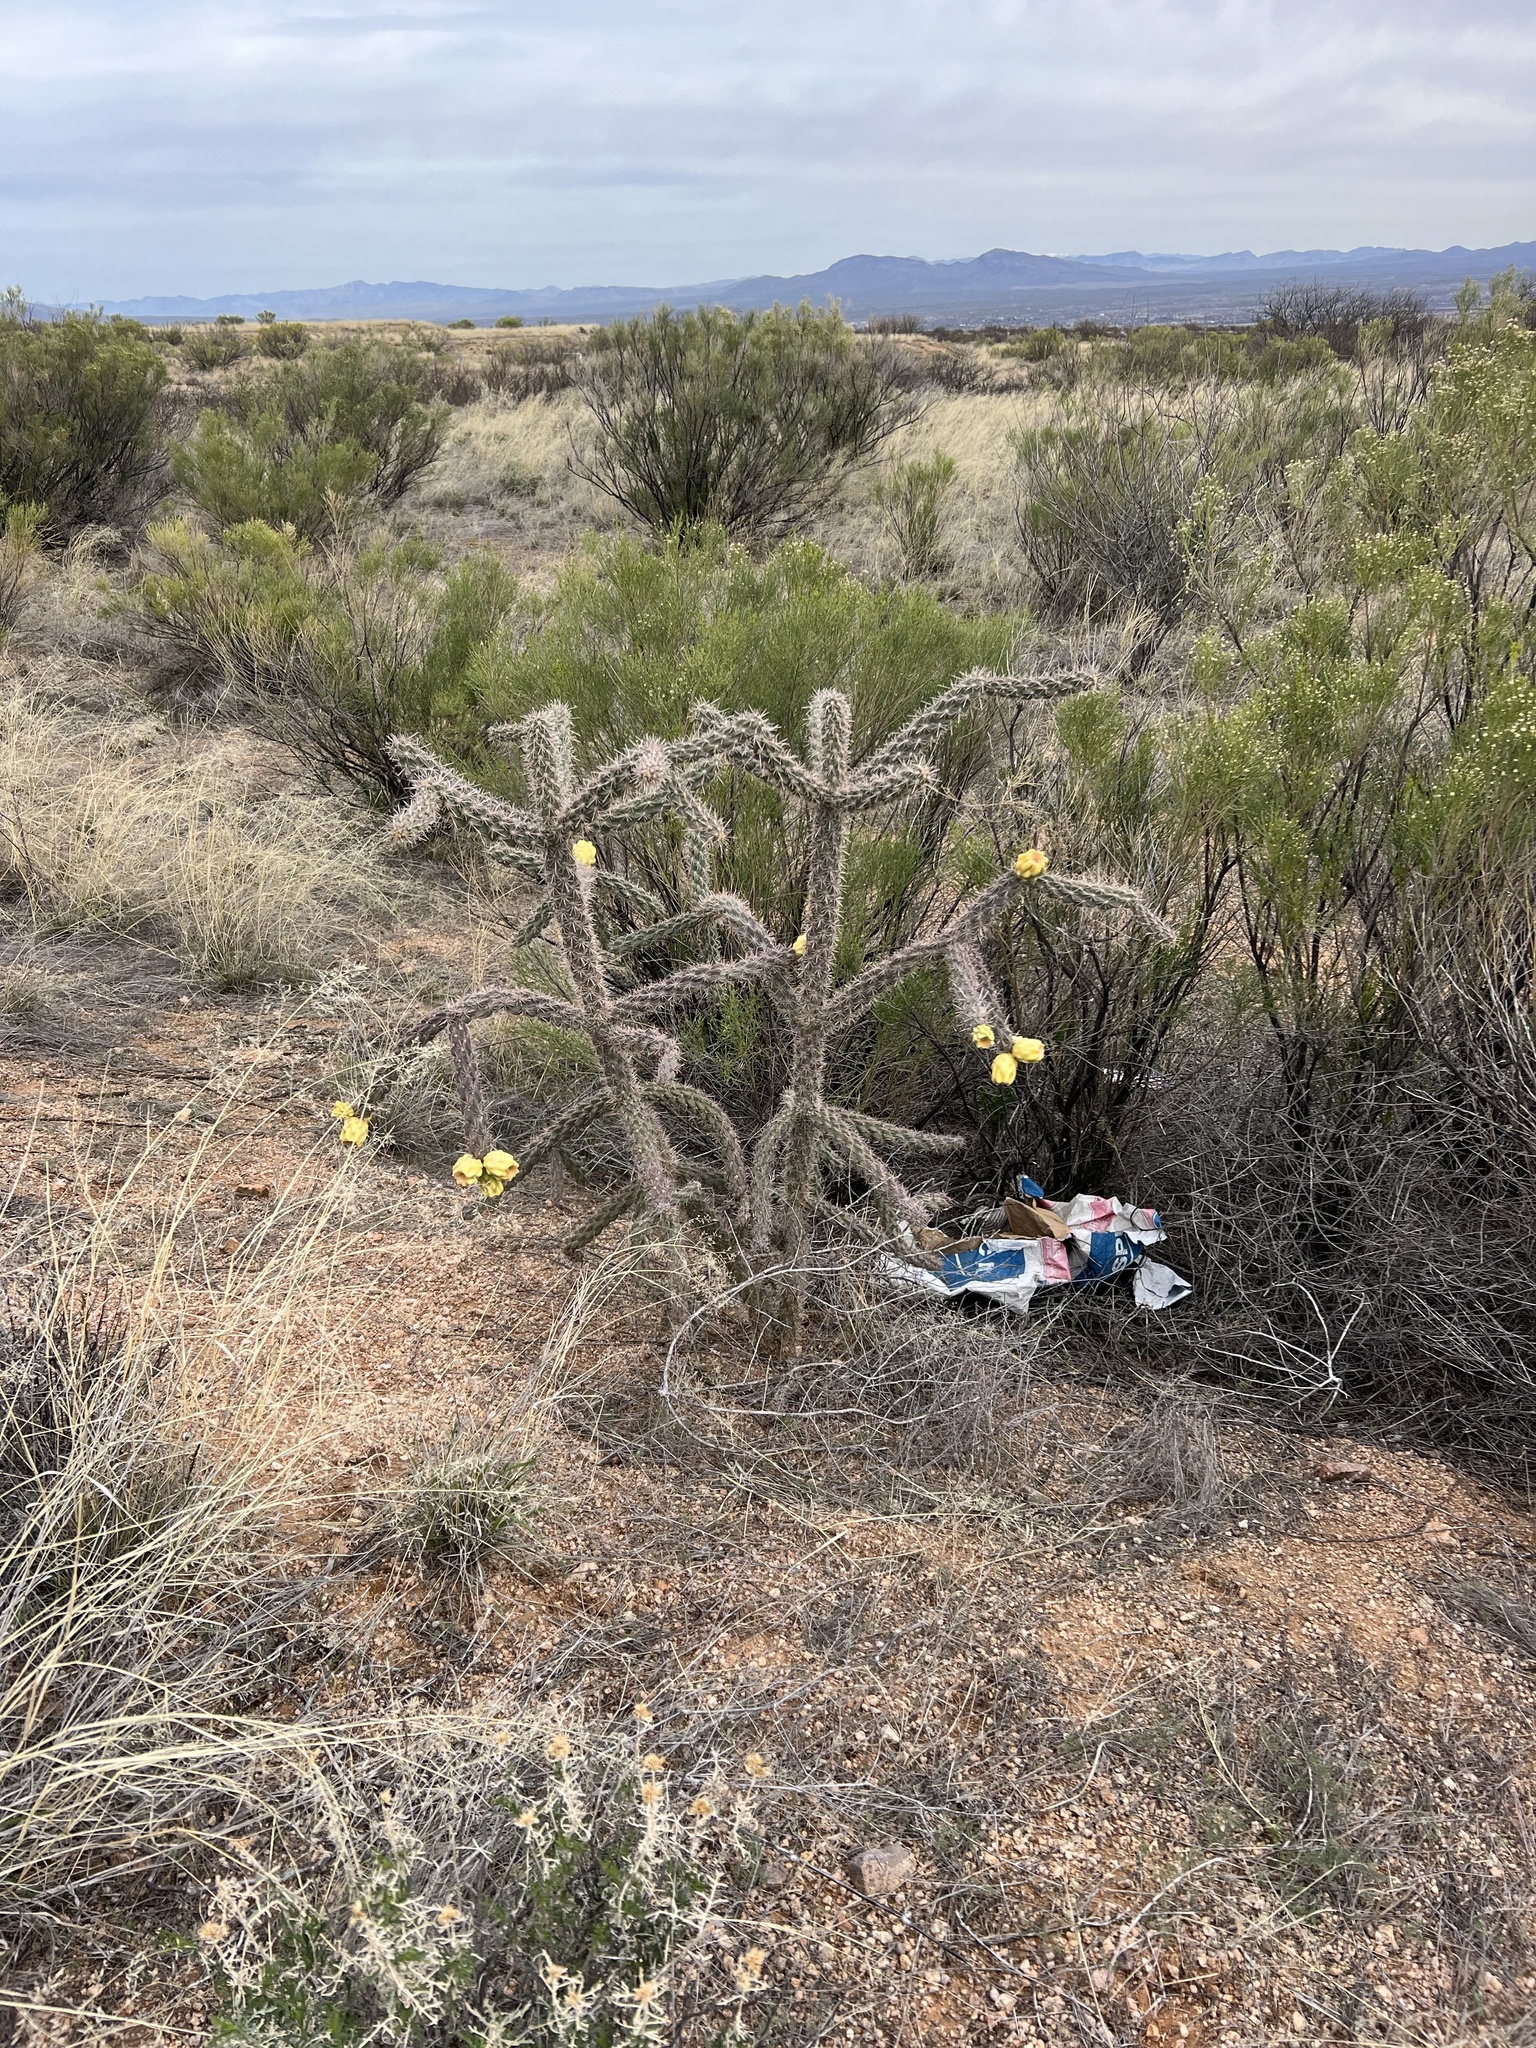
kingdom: Plantae
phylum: Tracheophyta
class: Magnoliopsida
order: Caryophyllales
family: Cactaceae
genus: Cylindropuntia
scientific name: Cylindropuntia imbricata
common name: Candelabrum cactus
